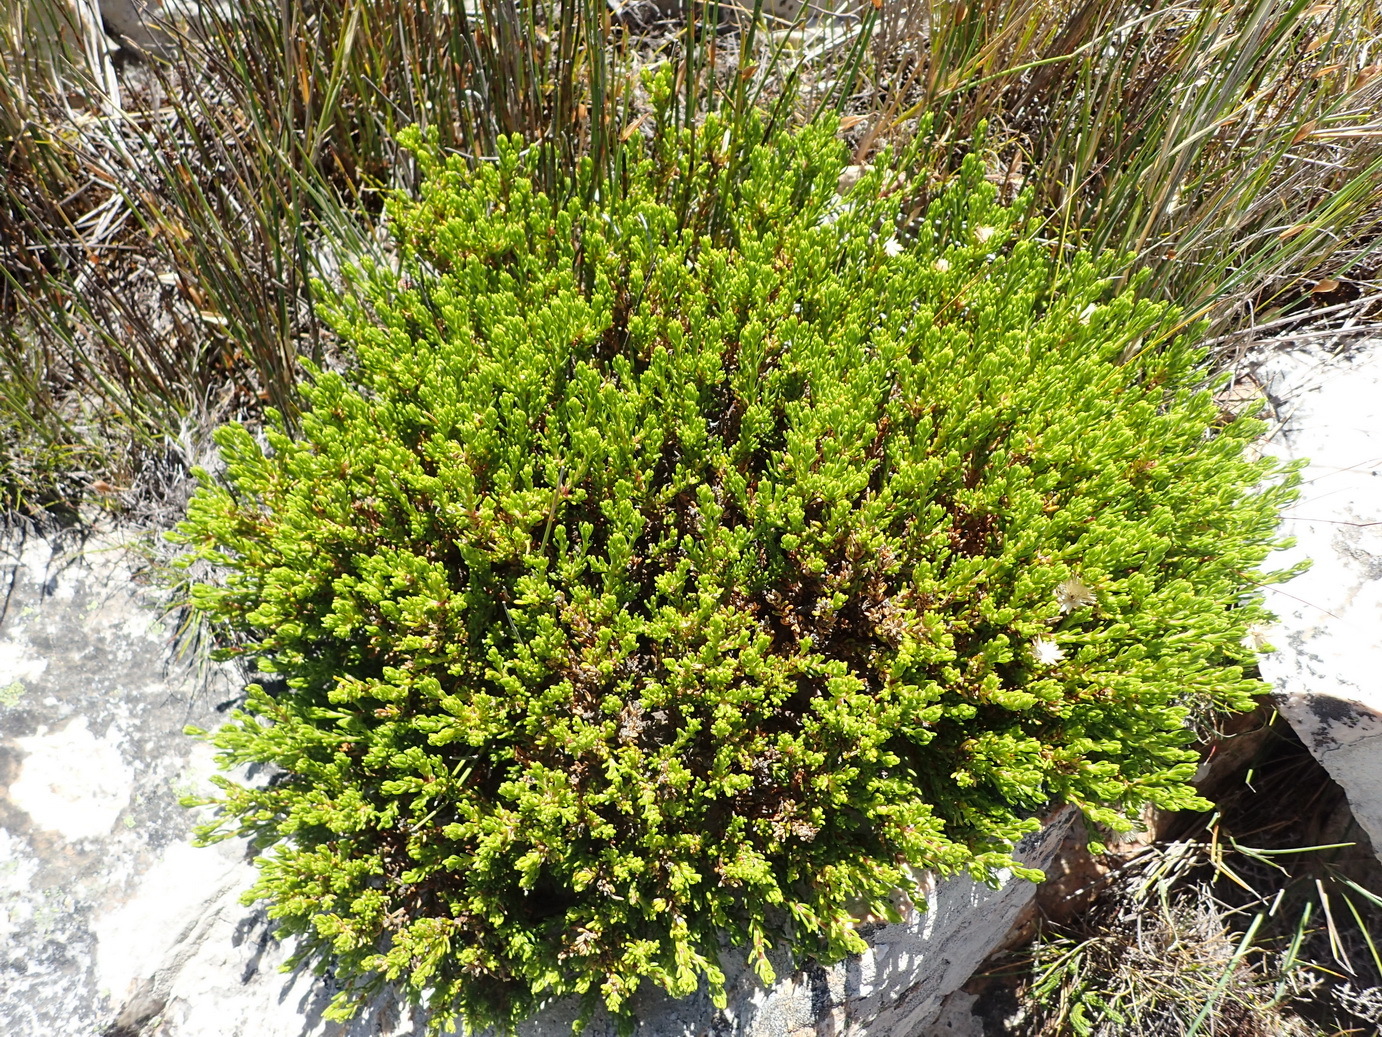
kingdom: Plantae
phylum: Tracheophyta
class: Magnoliopsida
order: Asterales
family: Asteraceae
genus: Felicia
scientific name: Felicia oleosa
